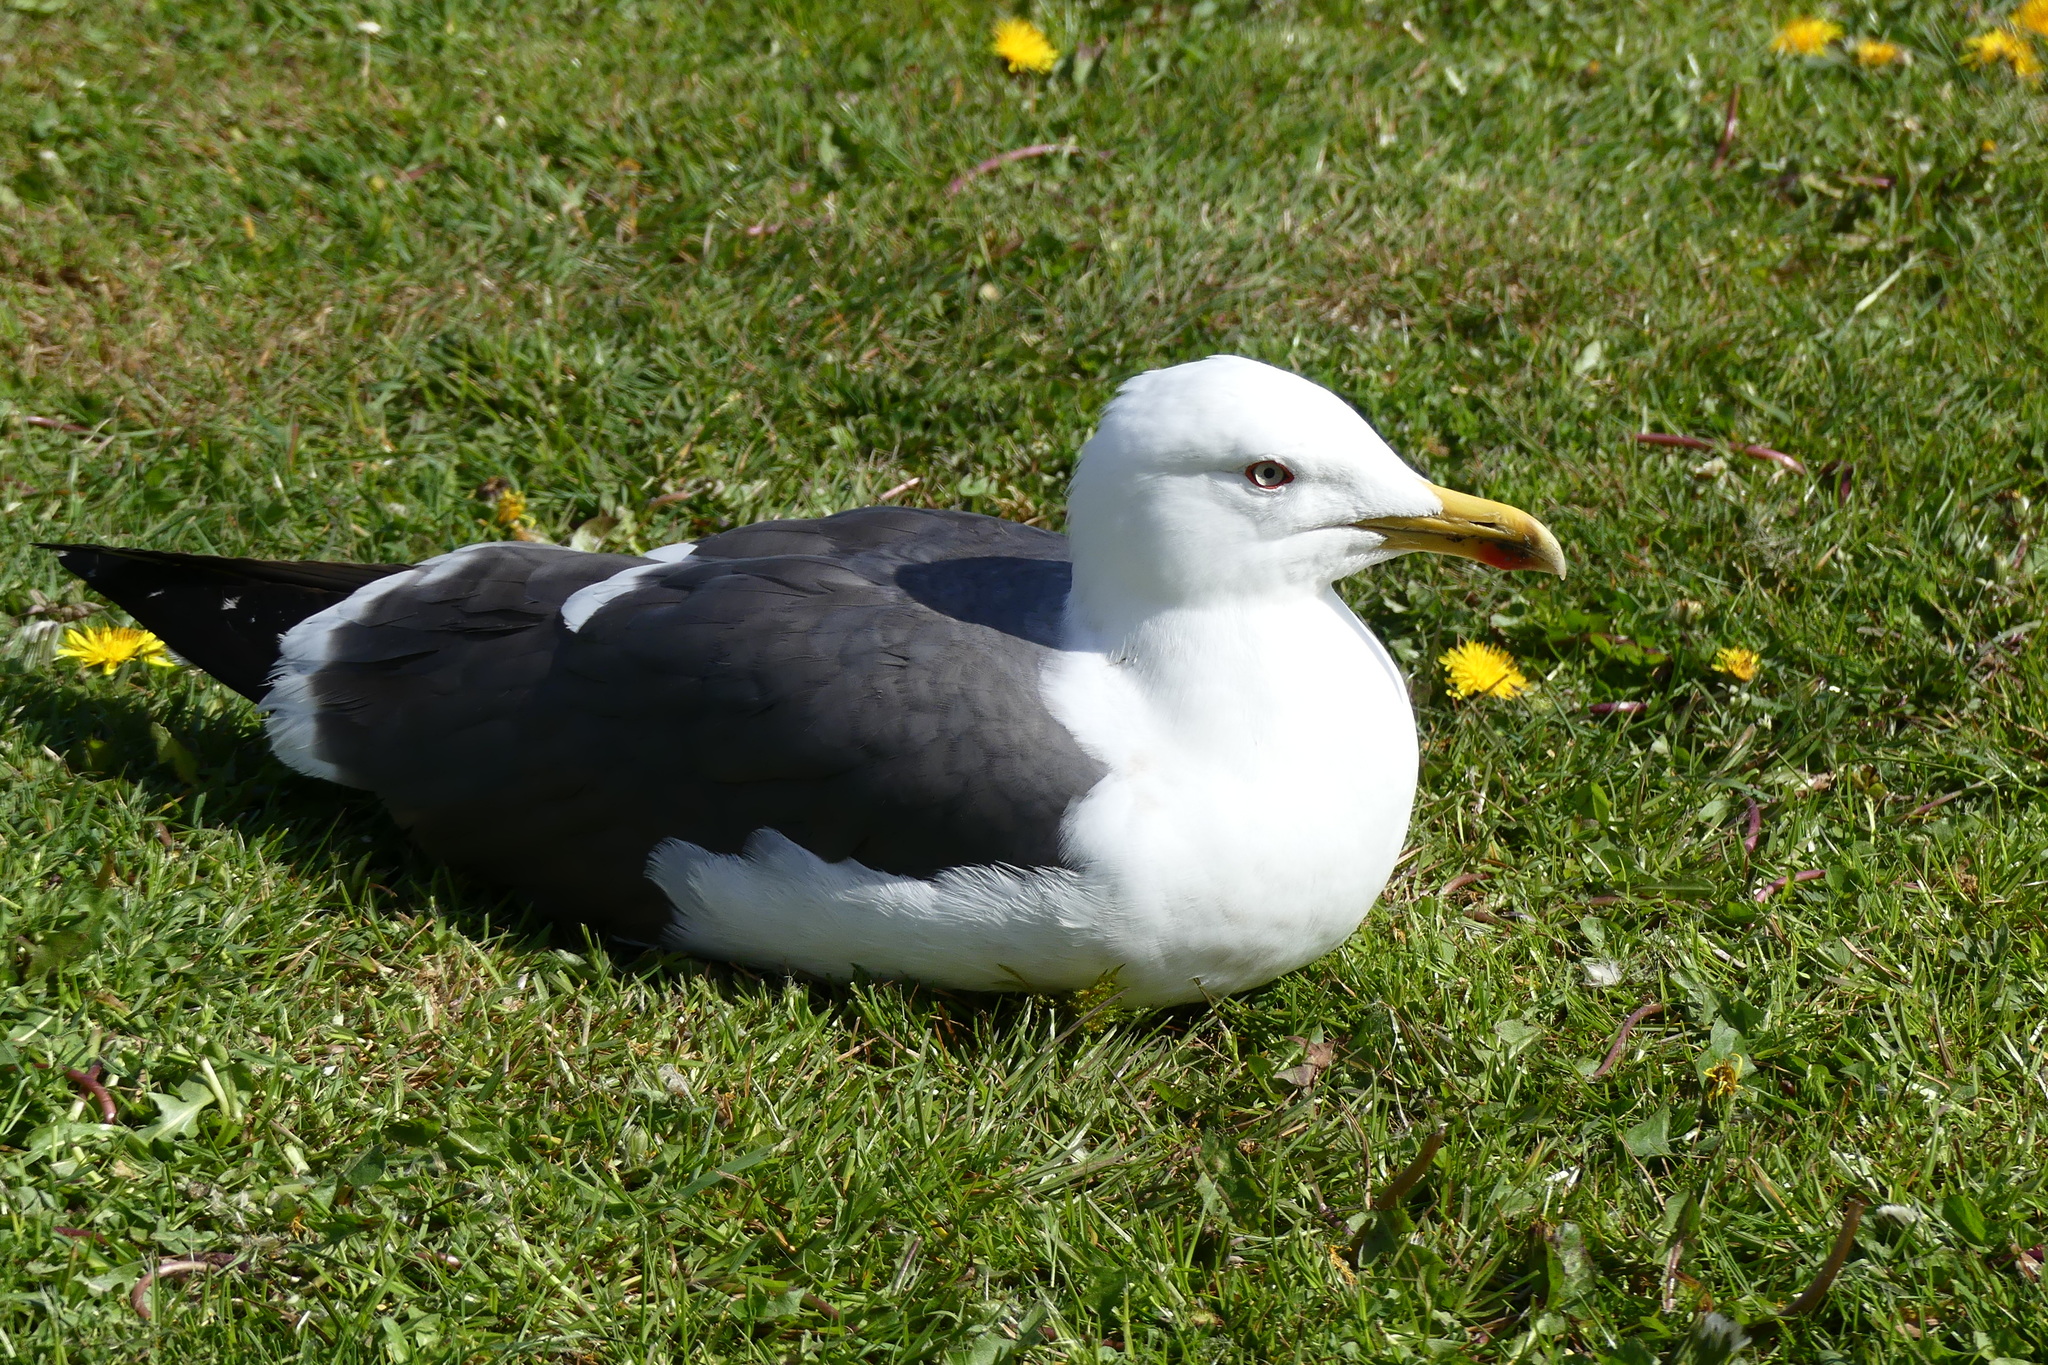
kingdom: Animalia
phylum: Chordata
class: Aves
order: Charadriiformes
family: Laridae
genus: Larus
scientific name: Larus fuscus
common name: Lesser black-backed gull
